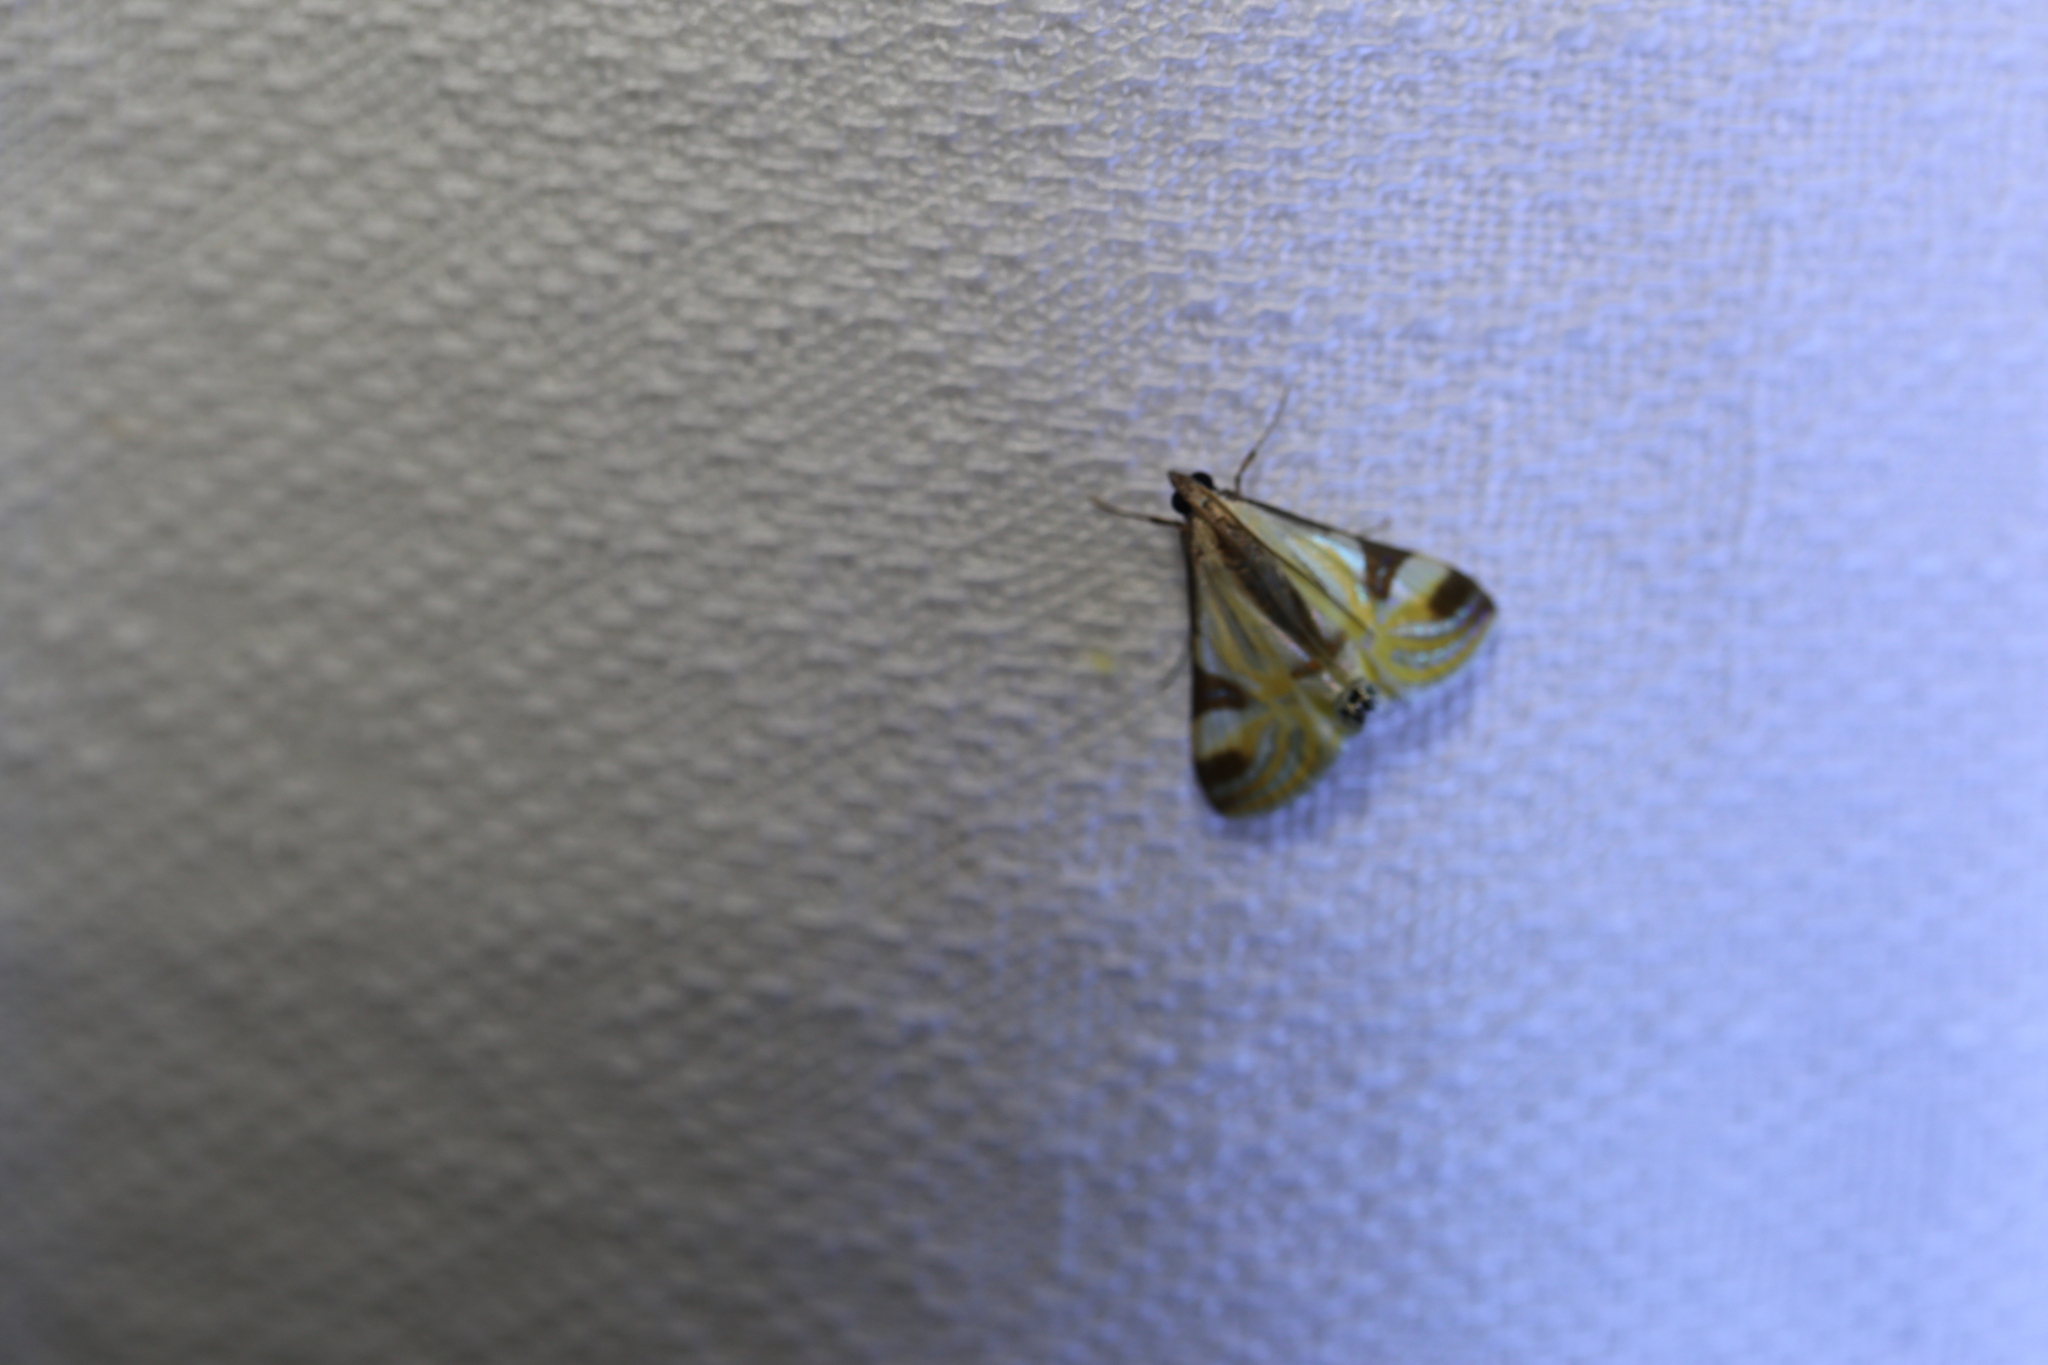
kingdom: Animalia
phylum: Arthropoda
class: Insecta
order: Lepidoptera
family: Crambidae
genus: Talanga
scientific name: Talanga tolumnialis
